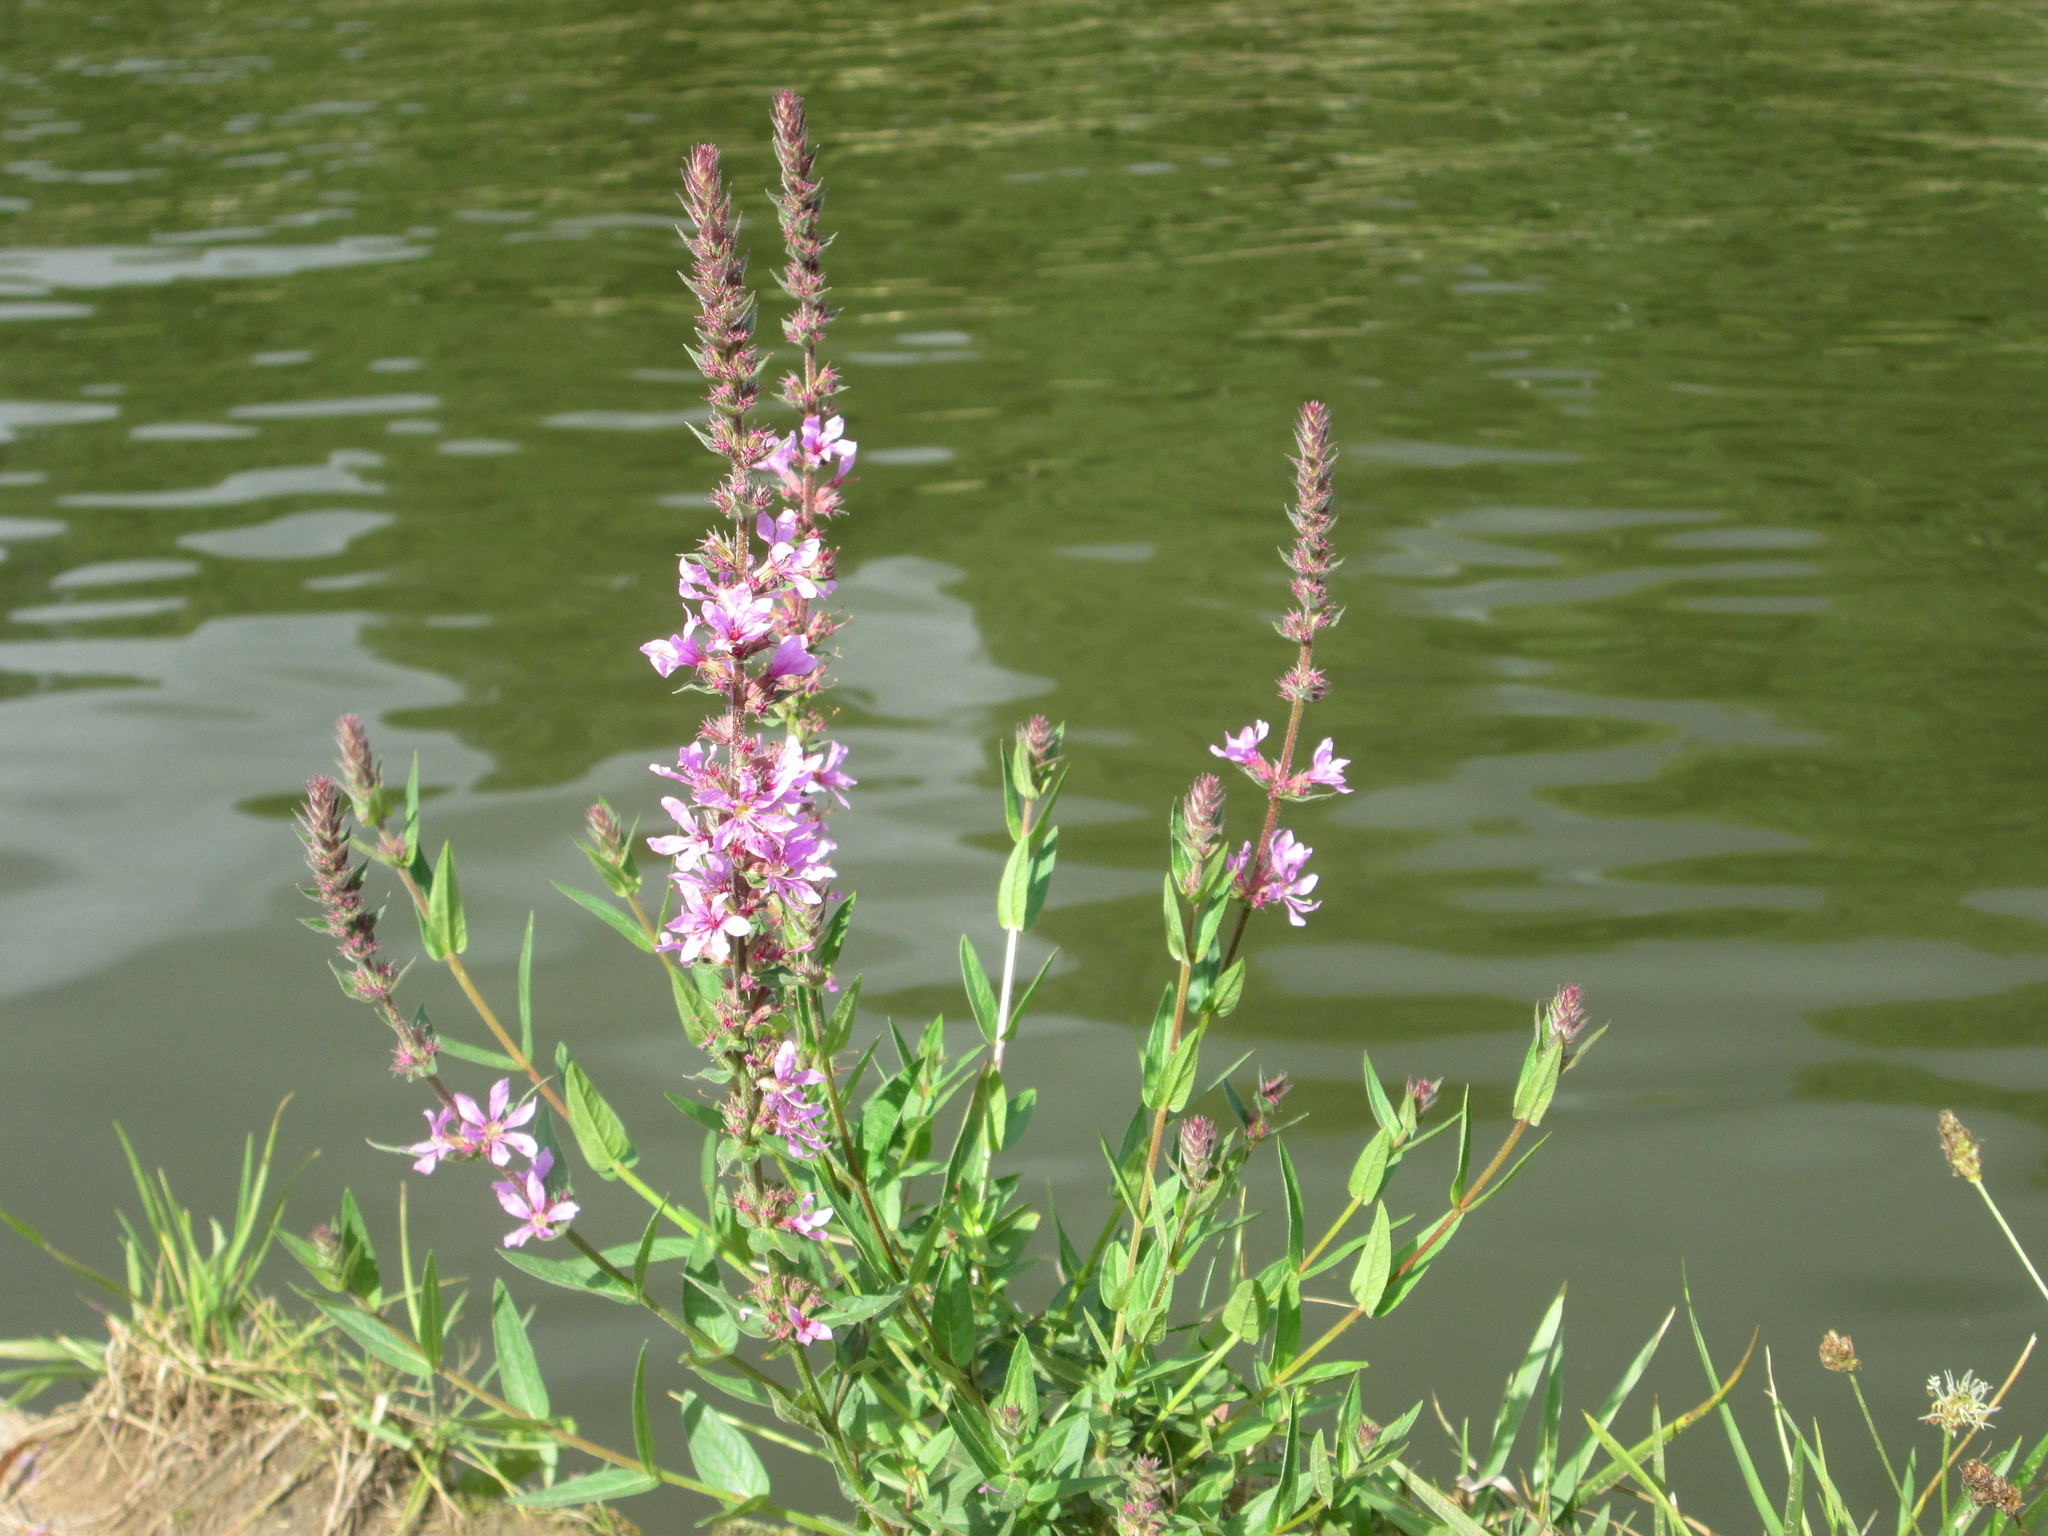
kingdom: Plantae
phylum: Tracheophyta
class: Magnoliopsida
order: Myrtales
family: Lythraceae
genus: Lythrum
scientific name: Lythrum salicaria
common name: Purple loosestrife
